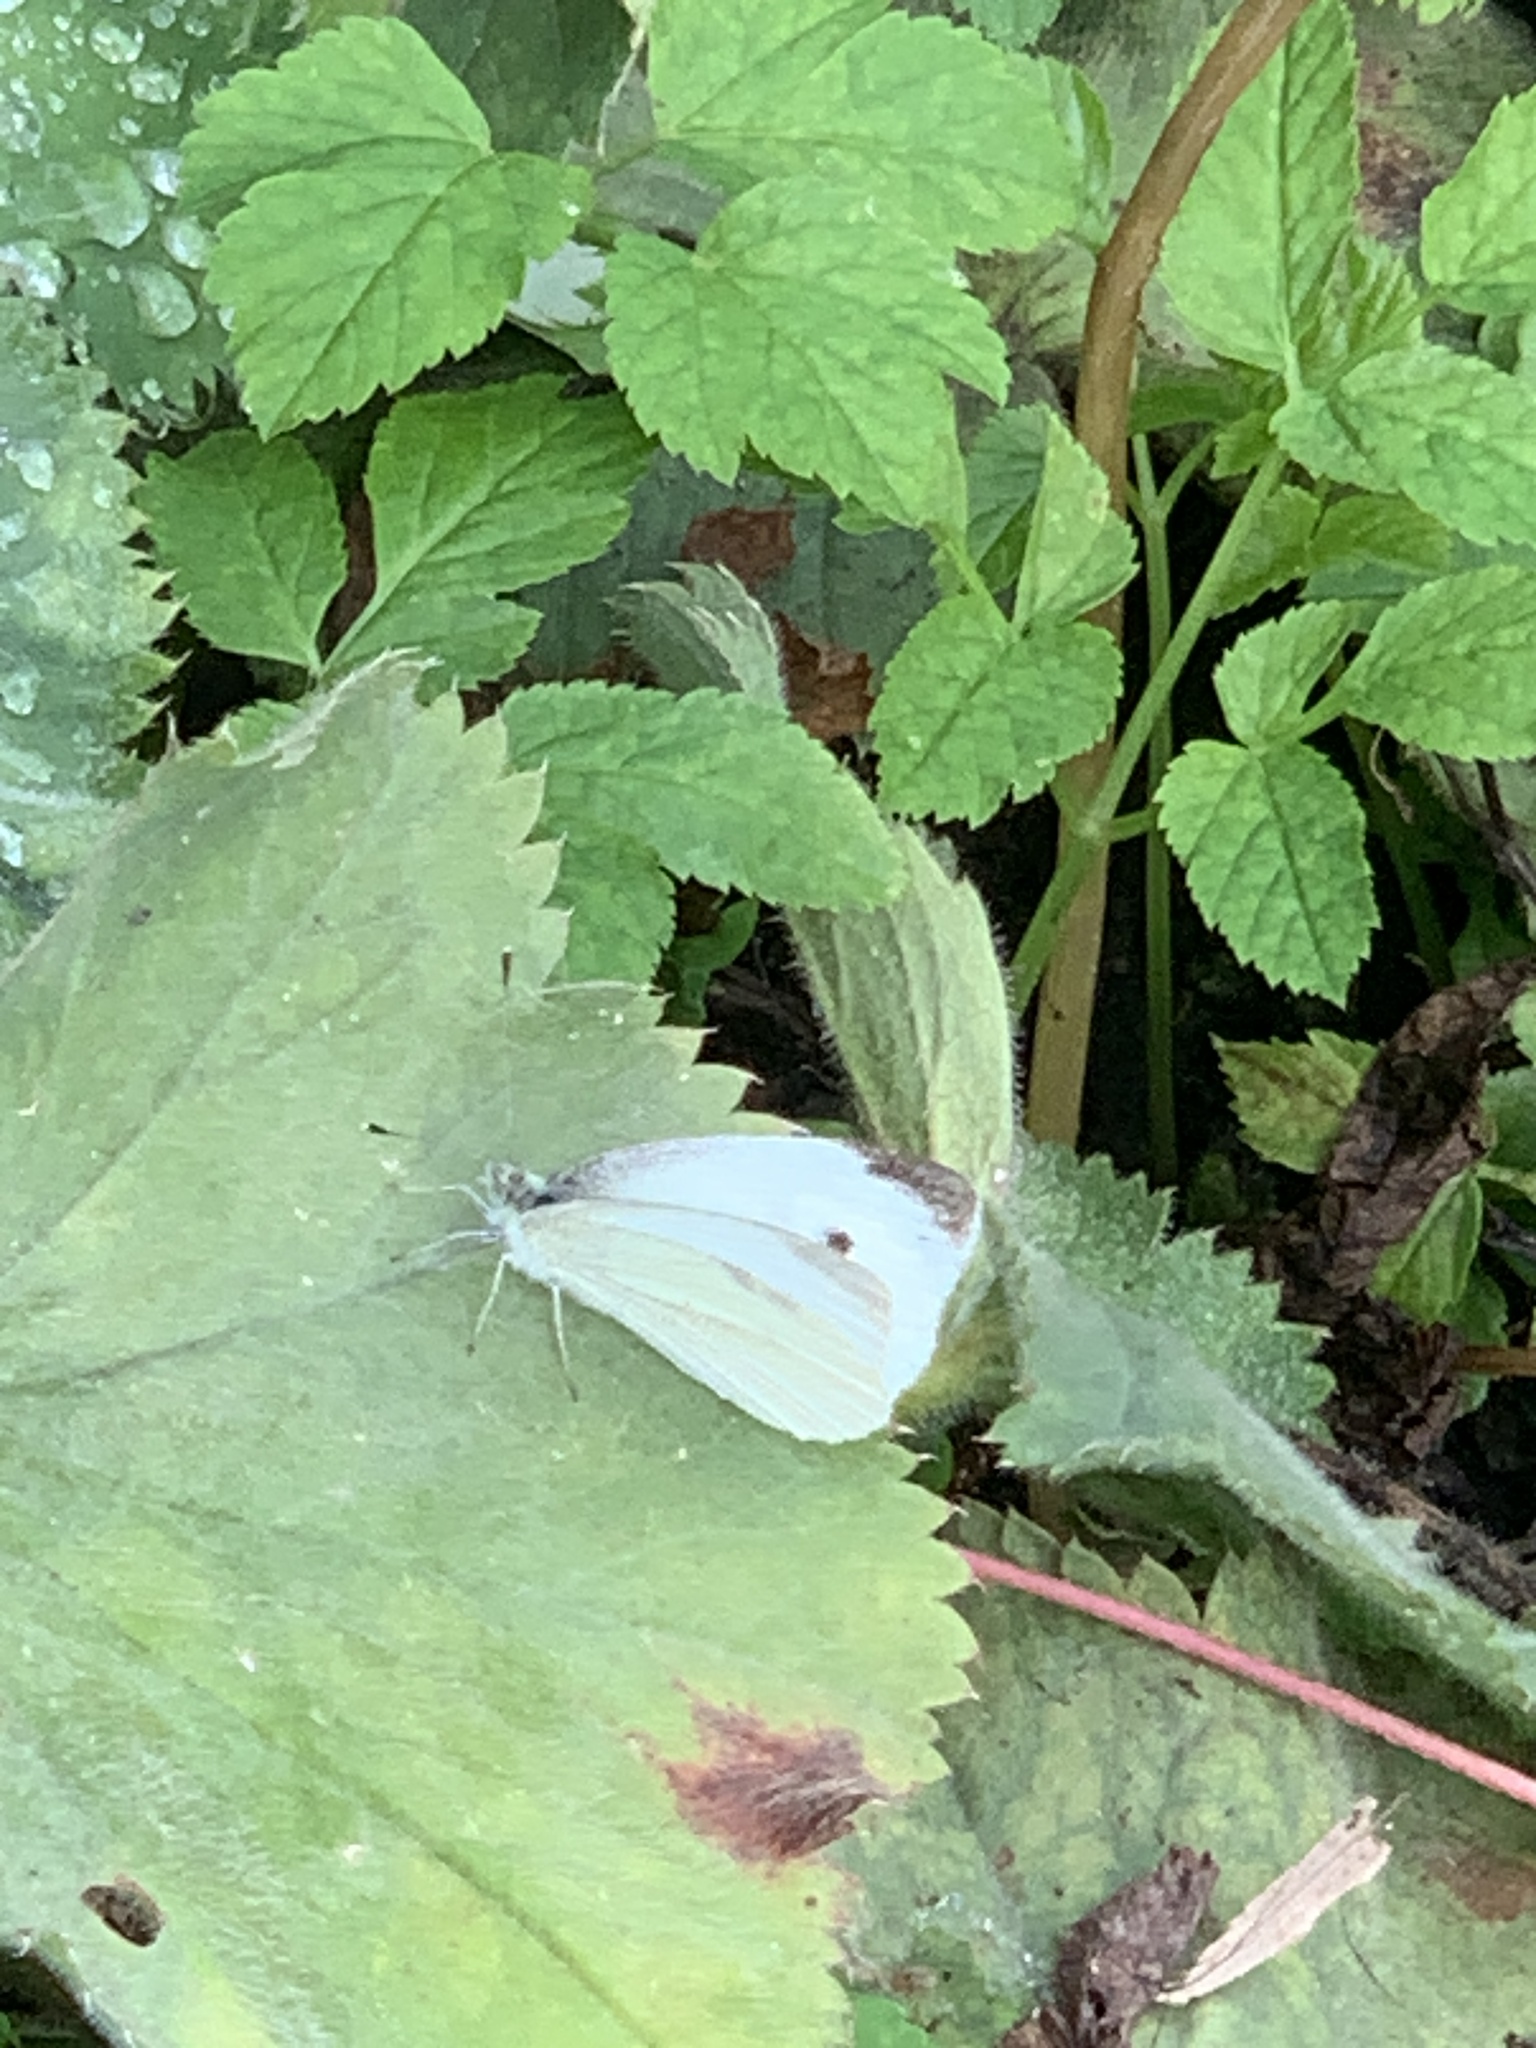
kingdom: Animalia
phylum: Arthropoda
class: Insecta
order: Lepidoptera
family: Pieridae
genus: Pieris
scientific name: Pieris rapae
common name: Small white
